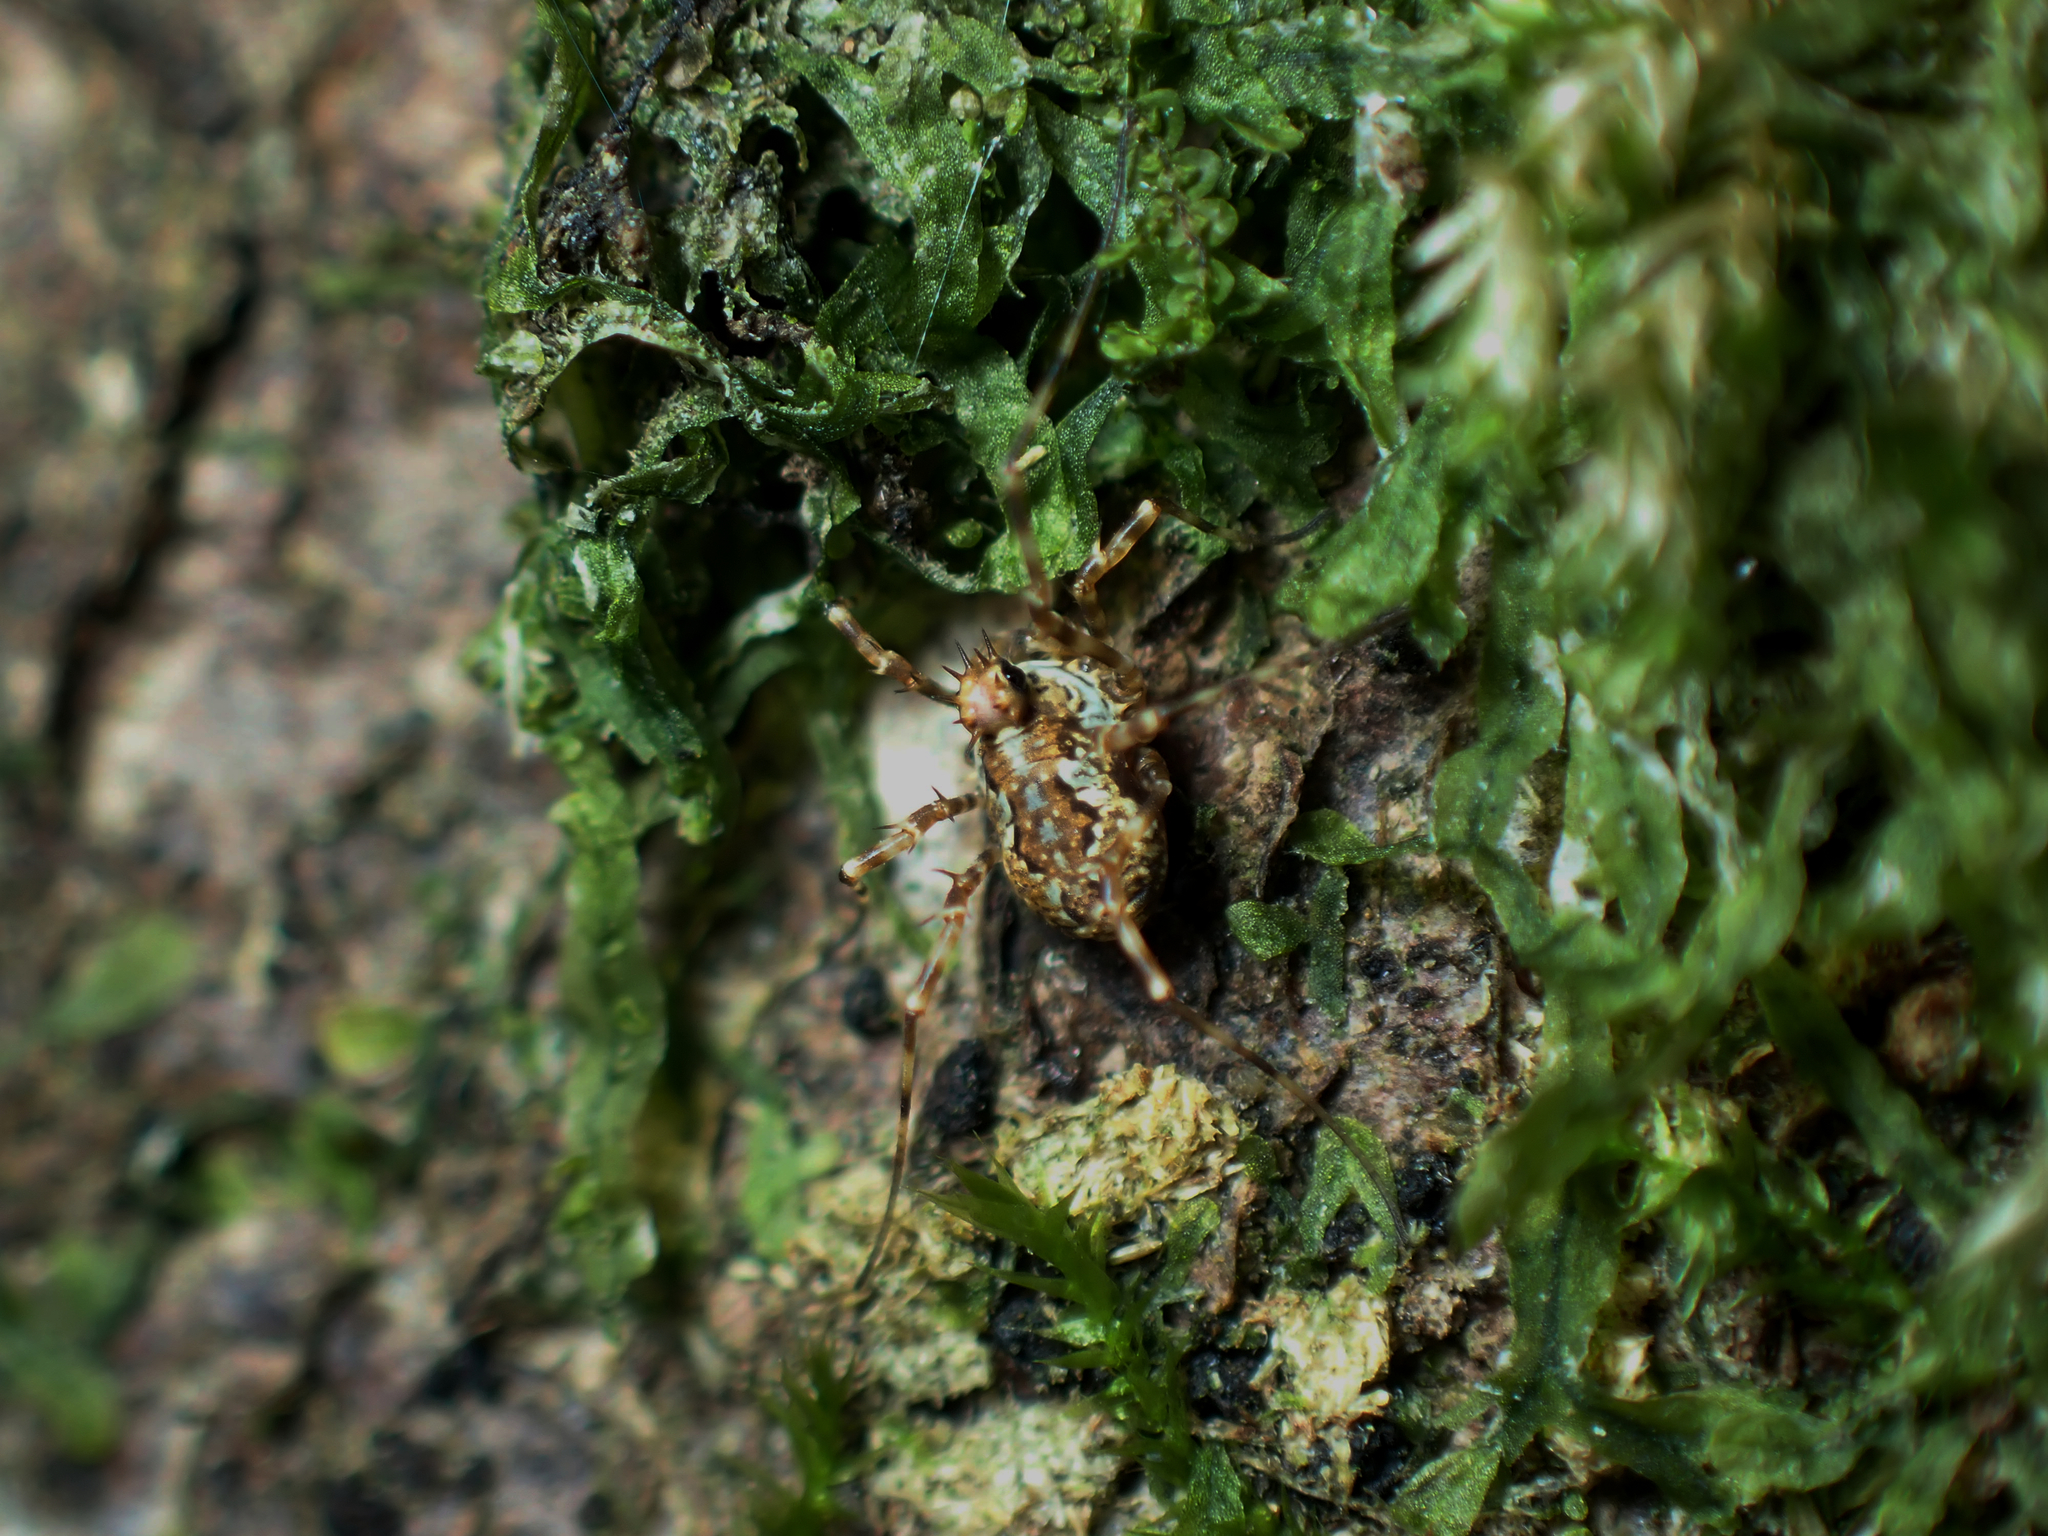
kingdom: Animalia
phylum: Arthropoda
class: Arachnida
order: Opiliones
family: Phalangiidae
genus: Megabunus
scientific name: Megabunus diadema
